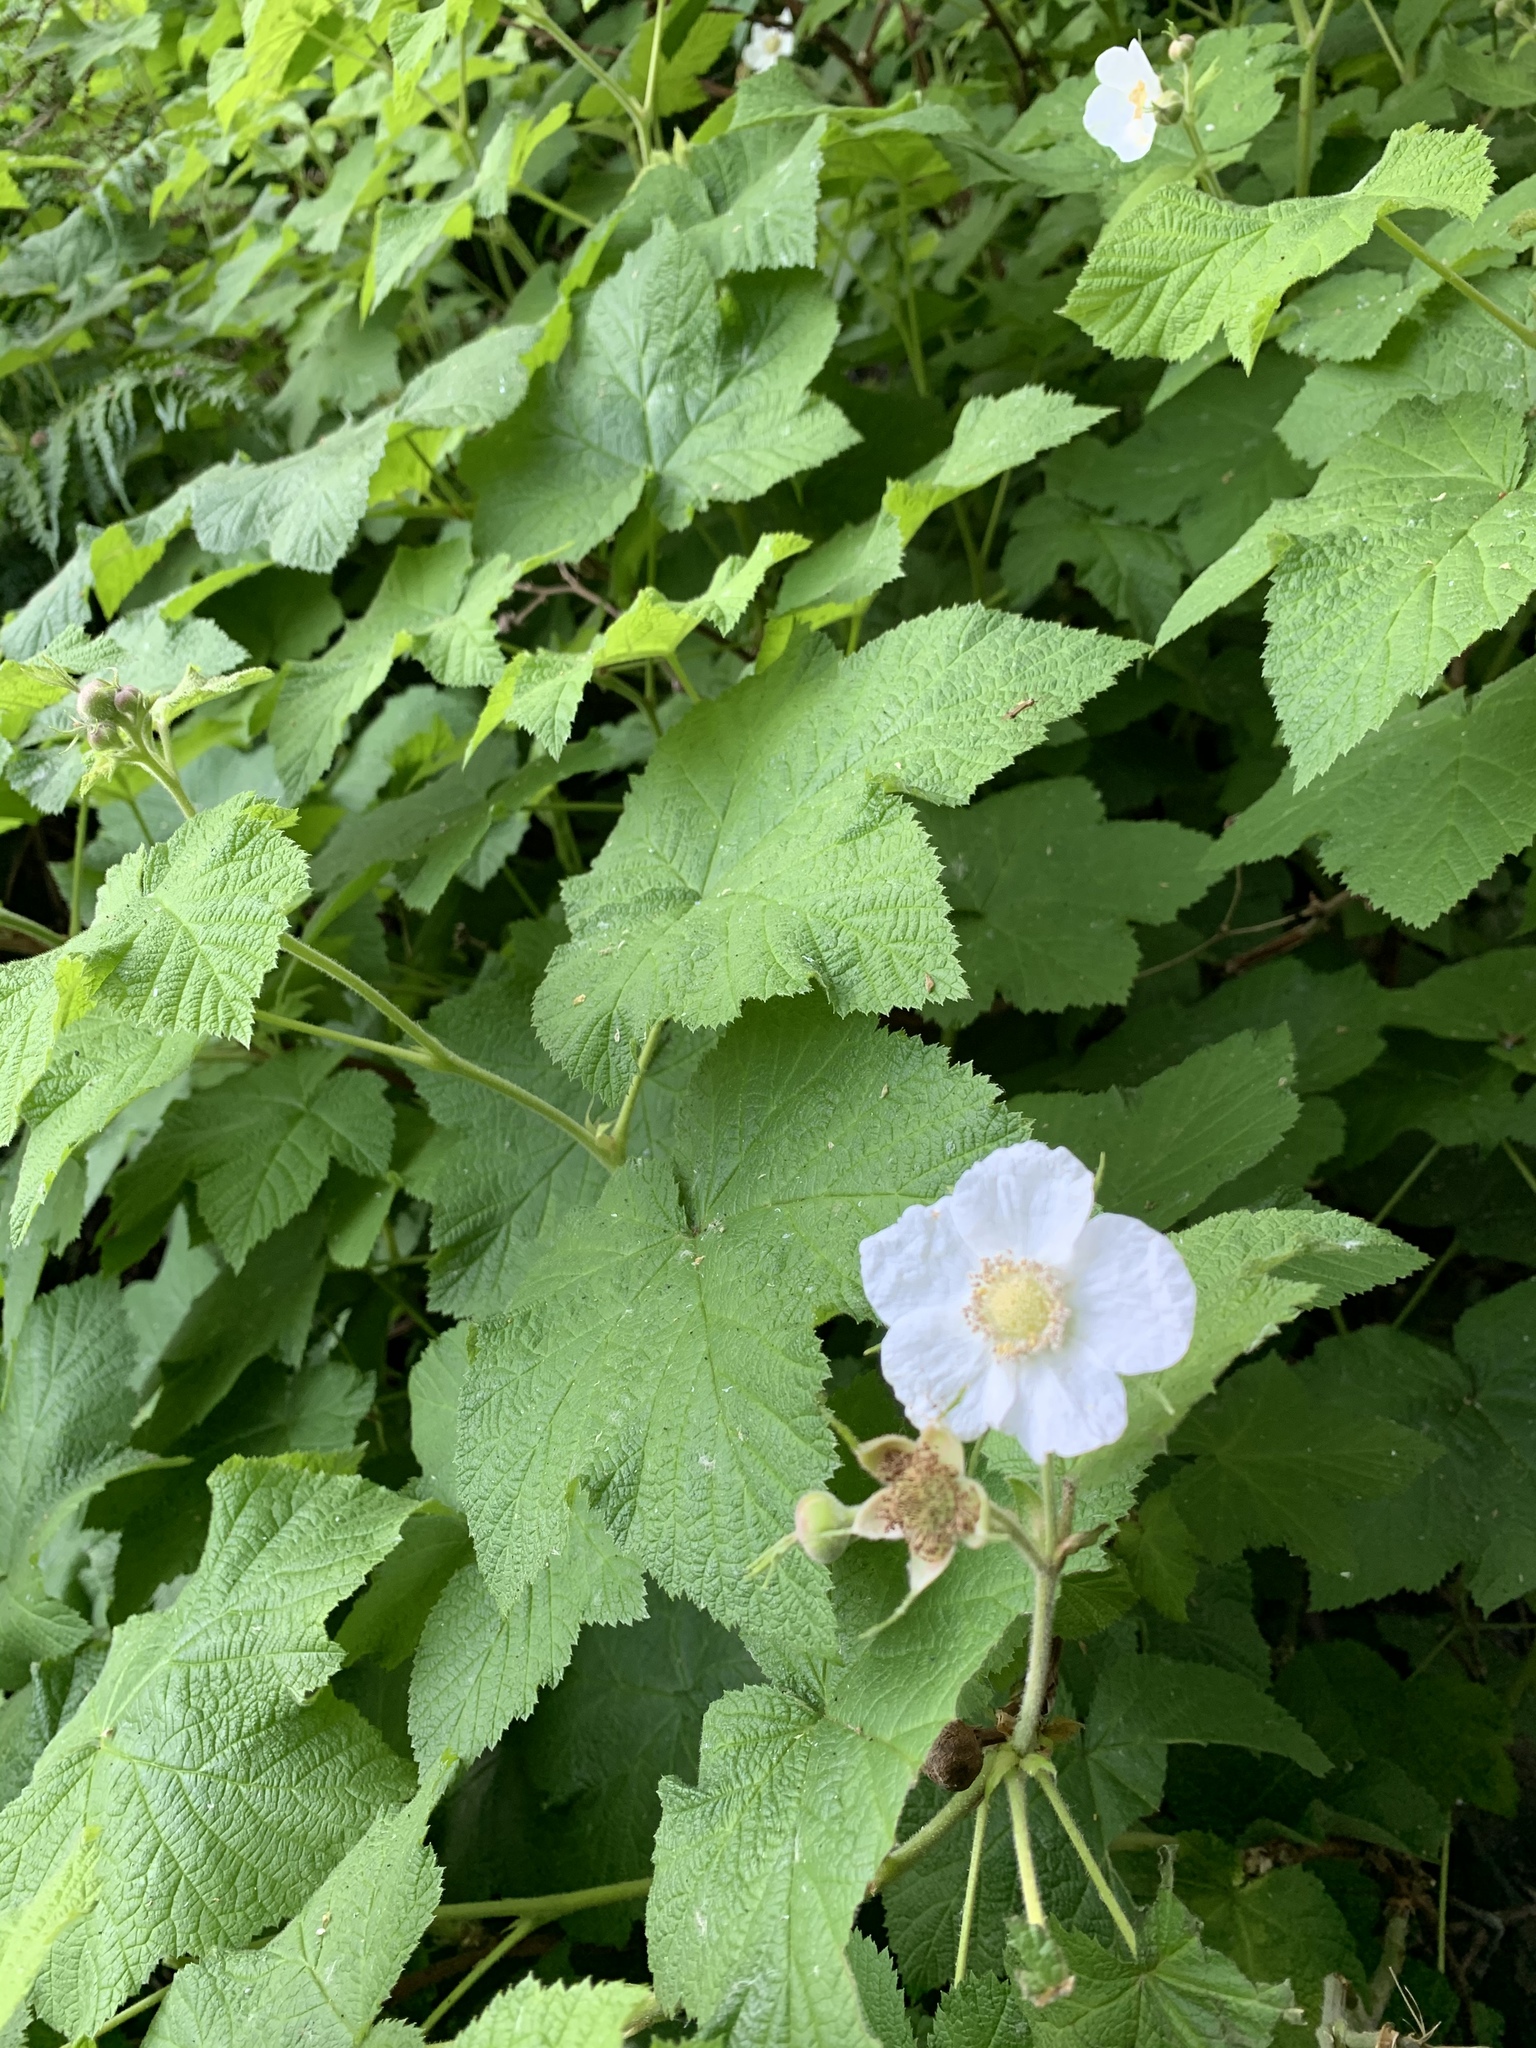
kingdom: Plantae
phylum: Tracheophyta
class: Magnoliopsida
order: Rosales
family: Rosaceae
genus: Rubus
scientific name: Rubus parviflorus
